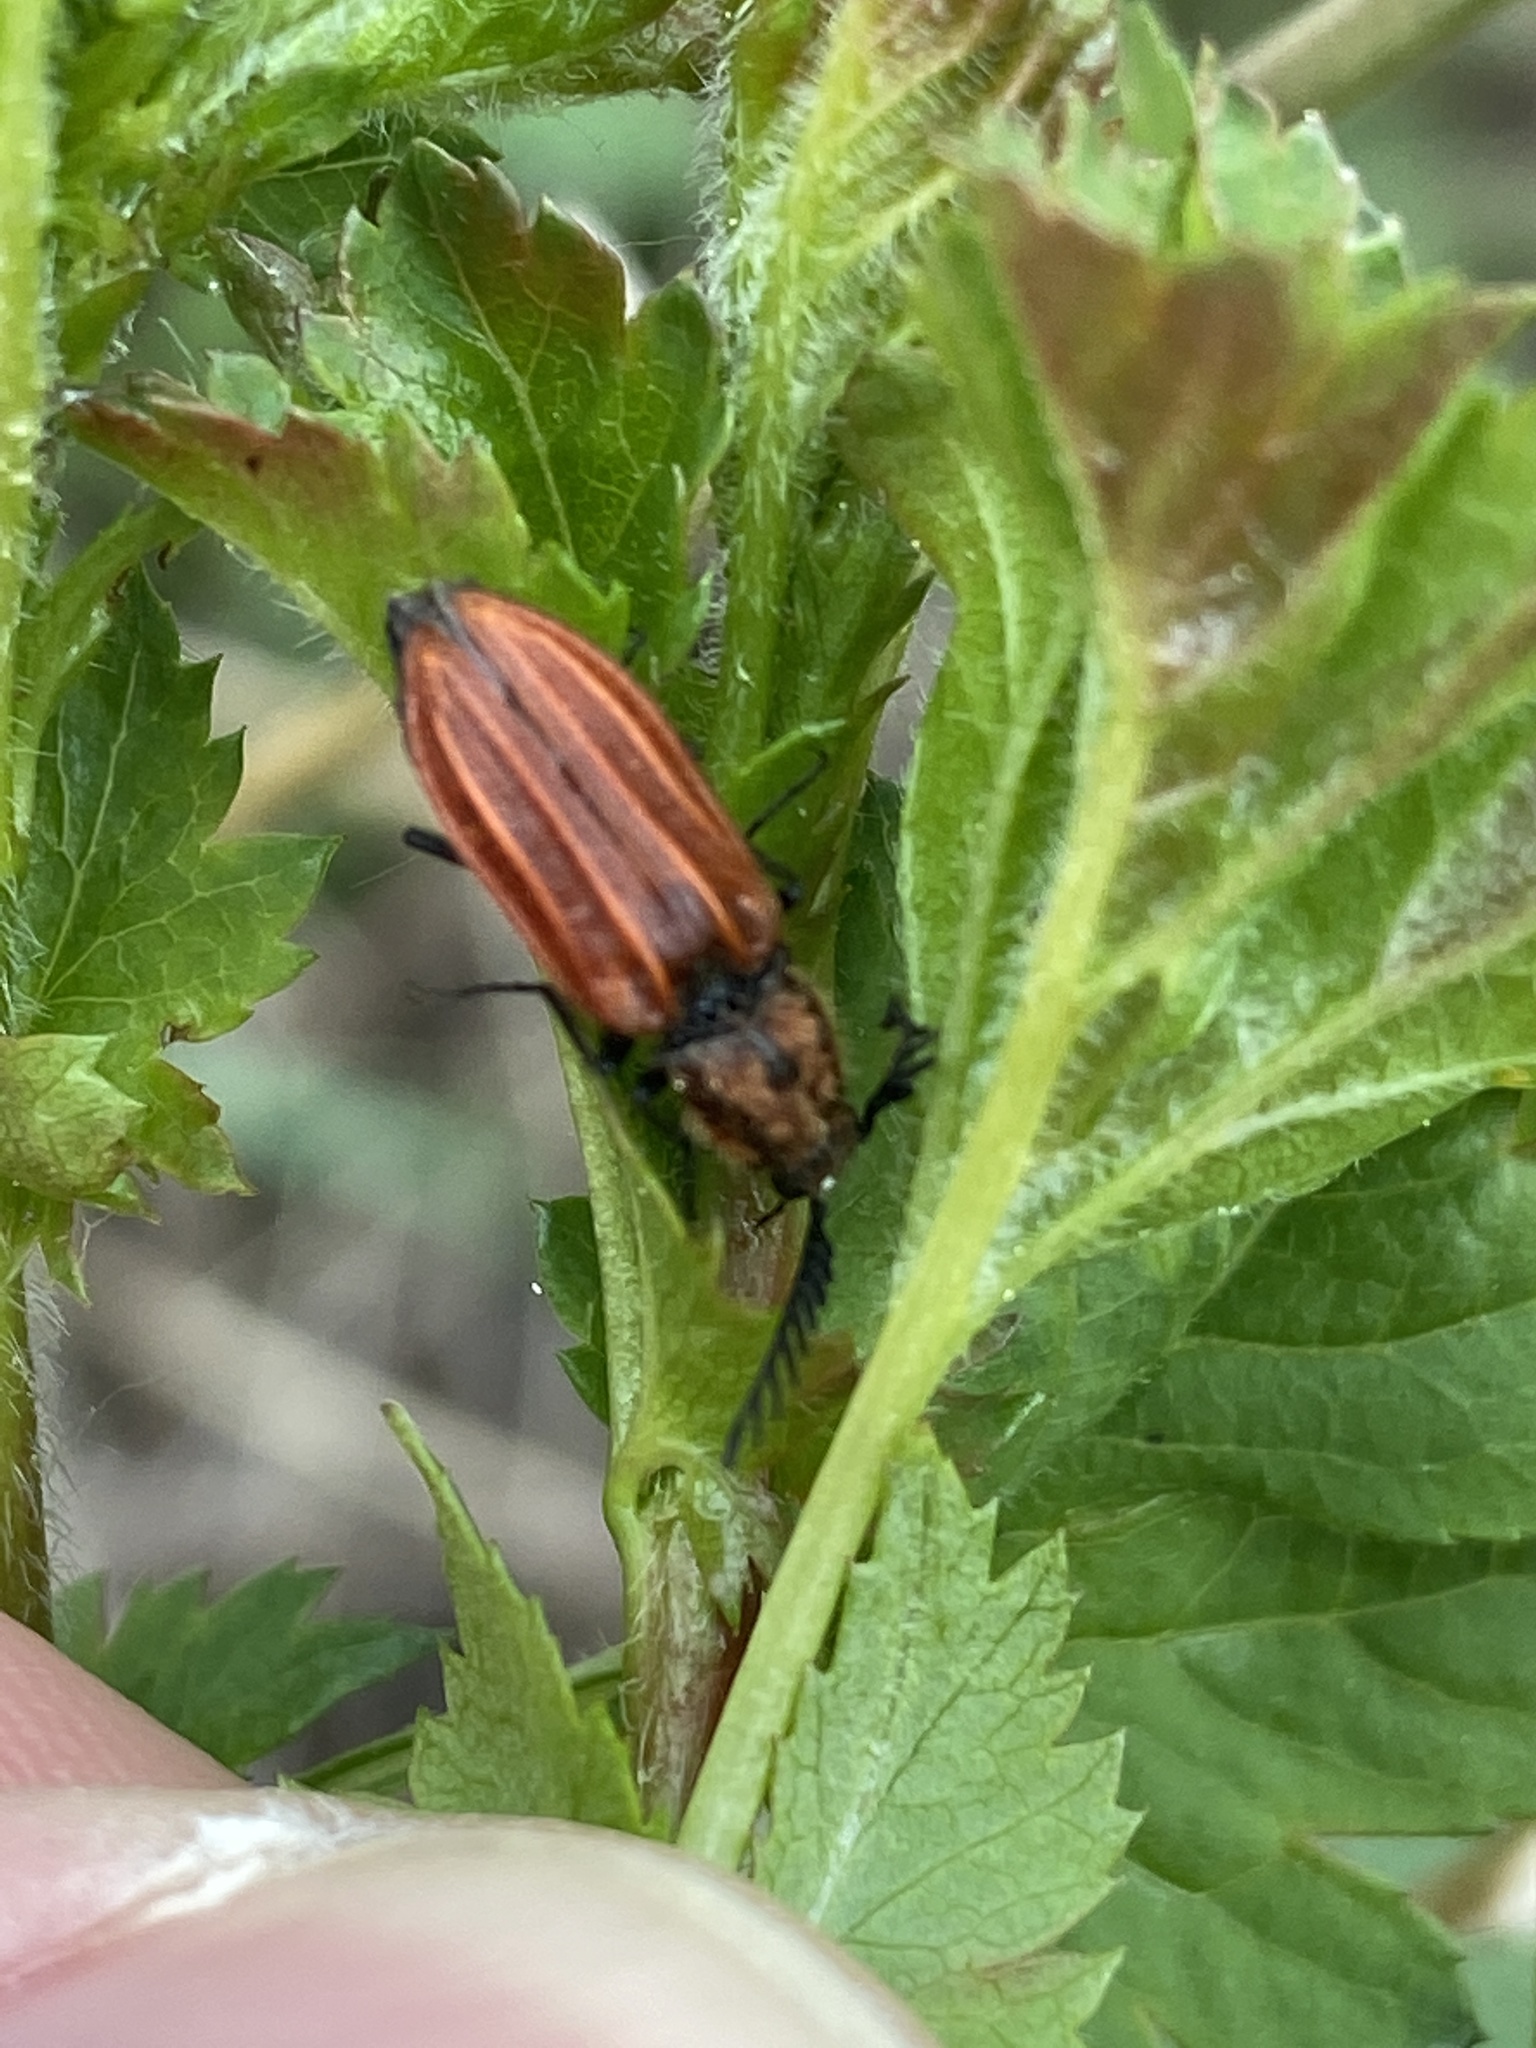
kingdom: Animalia
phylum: Arthropoda
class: Insecta
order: Coleoptera
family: Elateridae
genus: Anostirus
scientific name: Anostirus purpureus
